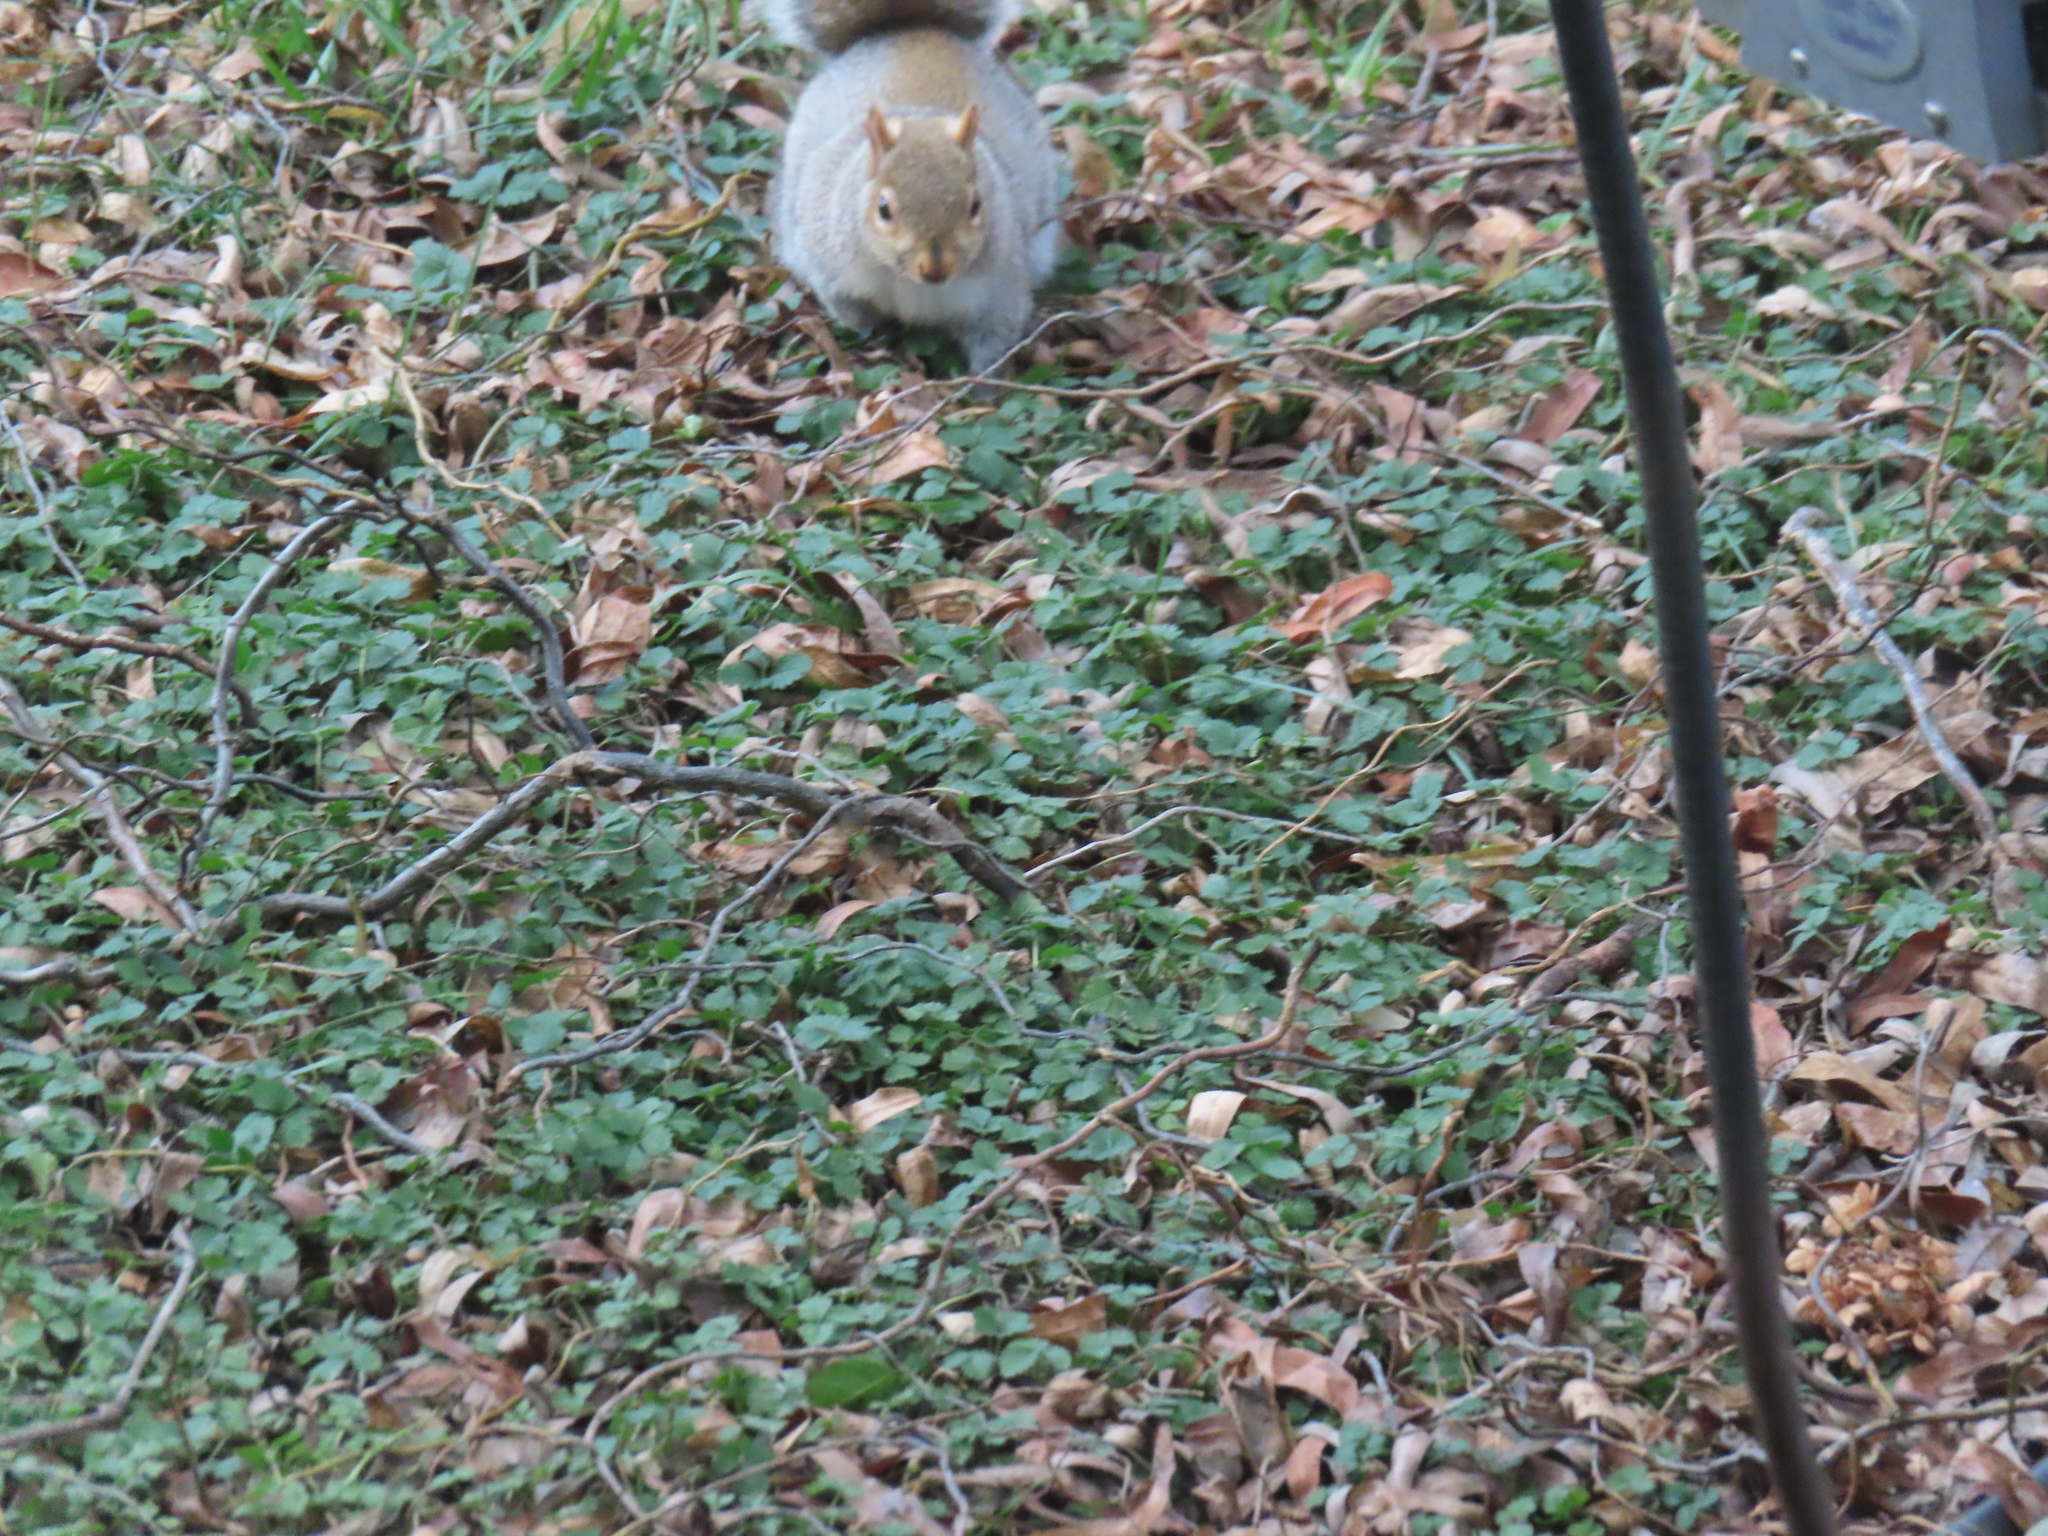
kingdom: Animalia
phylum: Chordata
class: Mammalia
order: Rodentia
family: Sciuridae
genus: Sciurus
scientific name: Sciurus carolinensis
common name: Eastern gray squirrel
